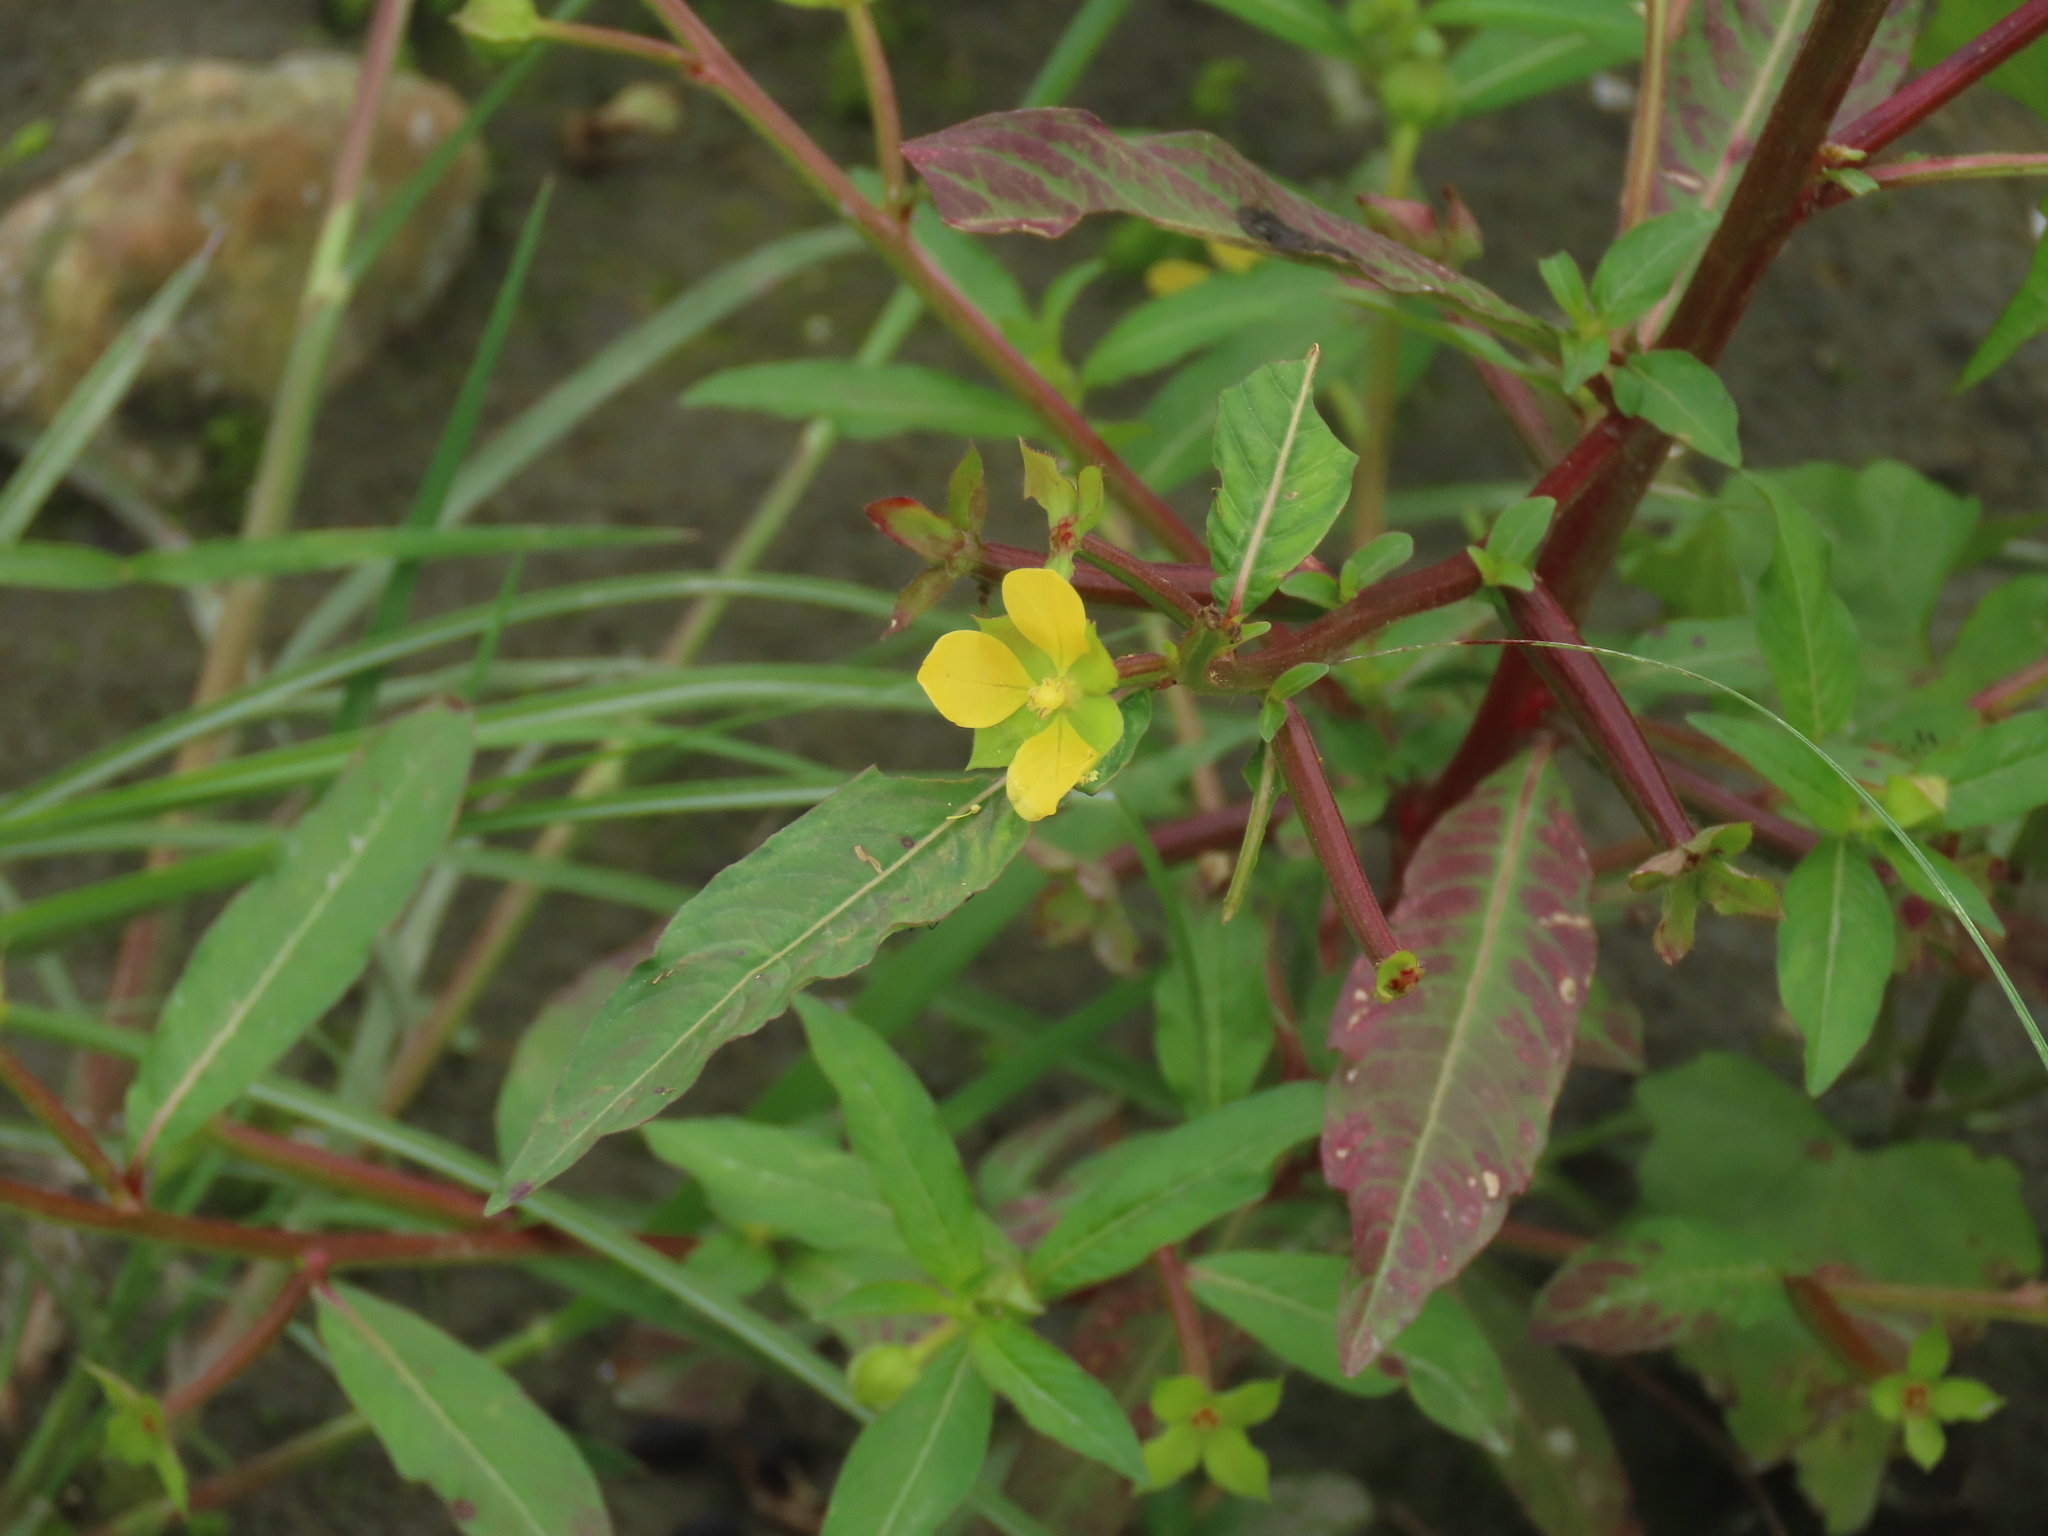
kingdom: Plantae
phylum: Tracheophyta
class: Magnoliopsida
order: Myrtales
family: Onagraceae
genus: Ludwigia
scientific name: Ludwigia hyssopifolia
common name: Linear leaf water primrose
